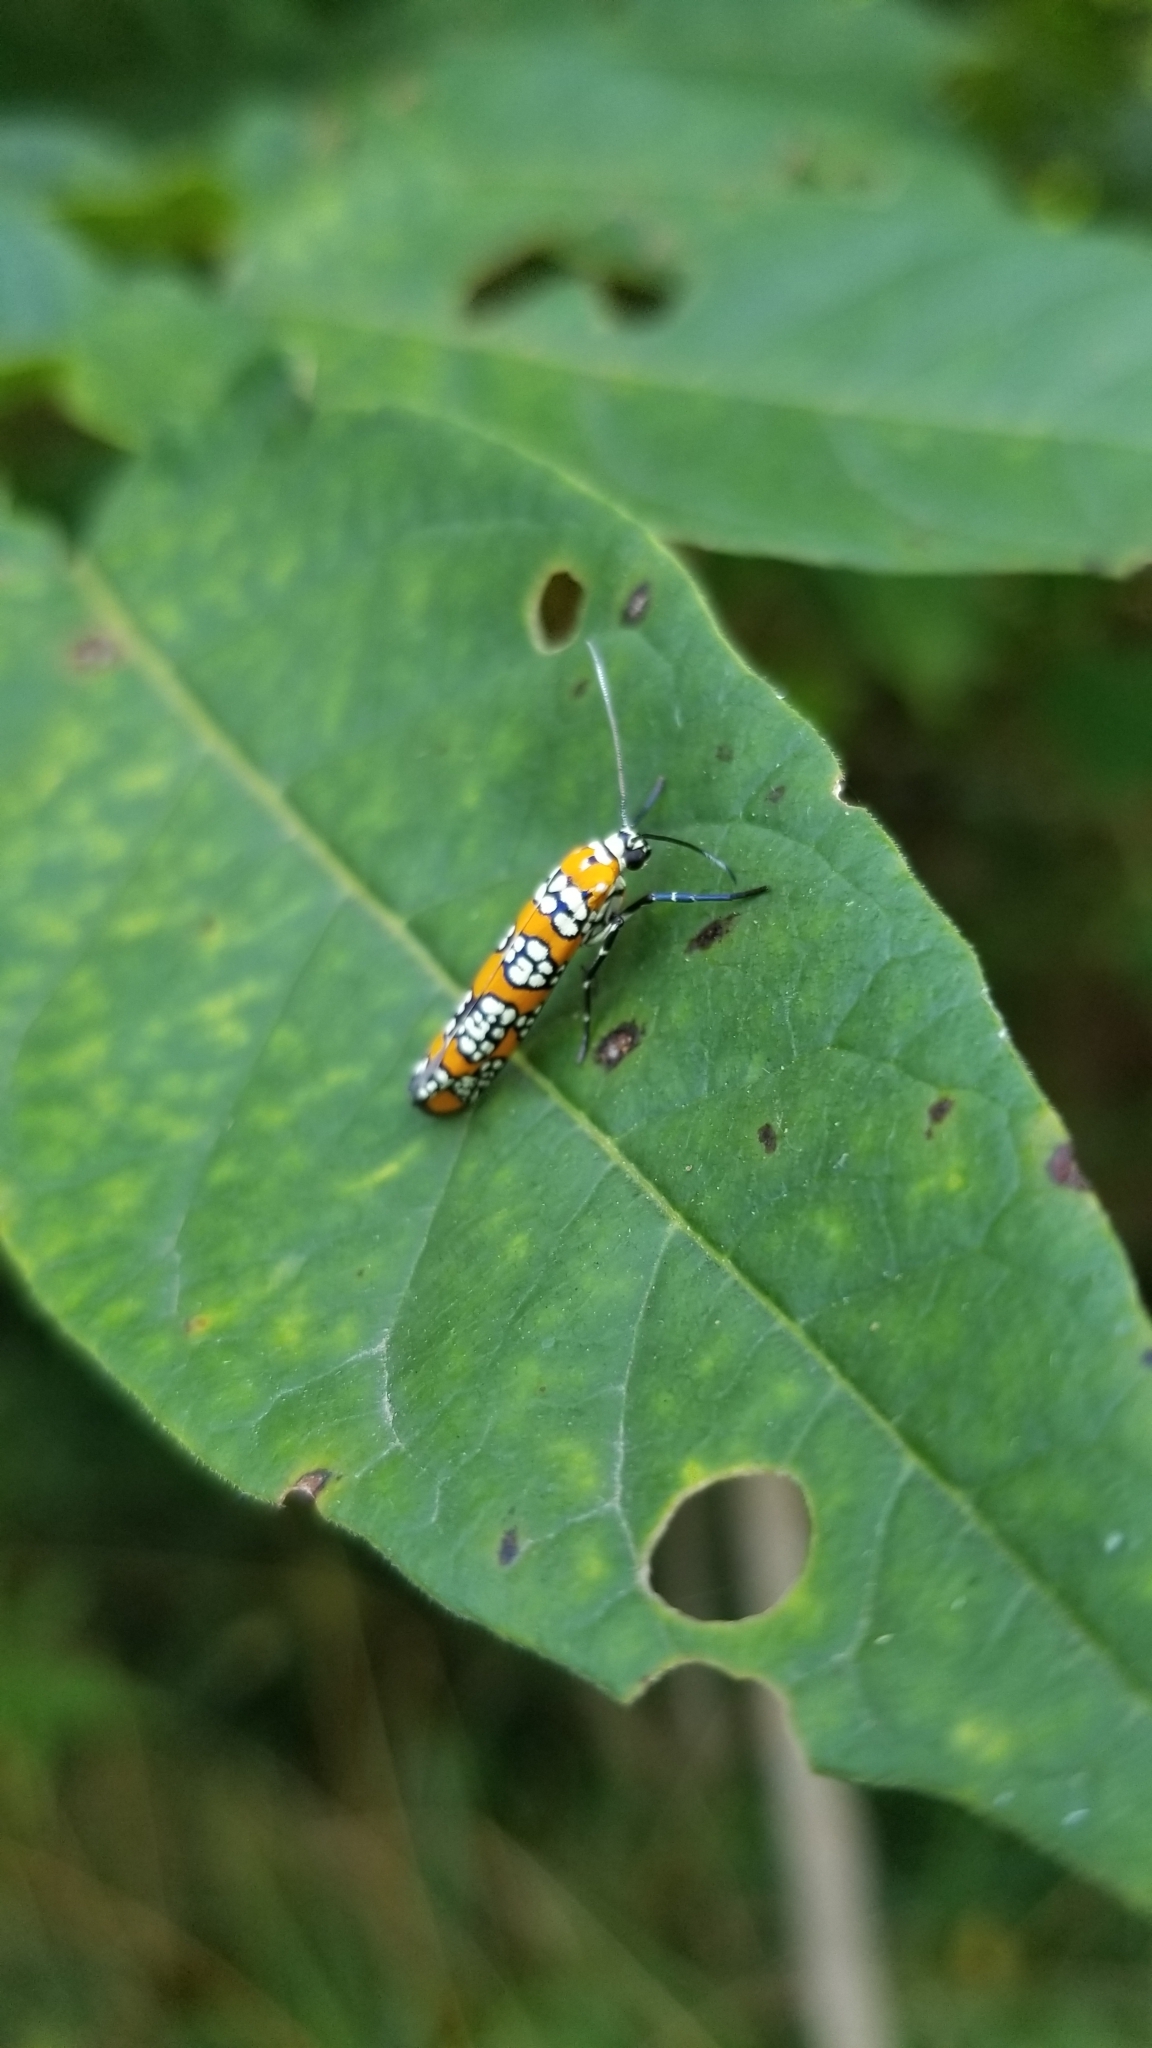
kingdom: Animalia
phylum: Arthropoda
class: Insecta
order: Lepidoptera
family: Attevidae
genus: Atteva
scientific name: Atteva punctella
